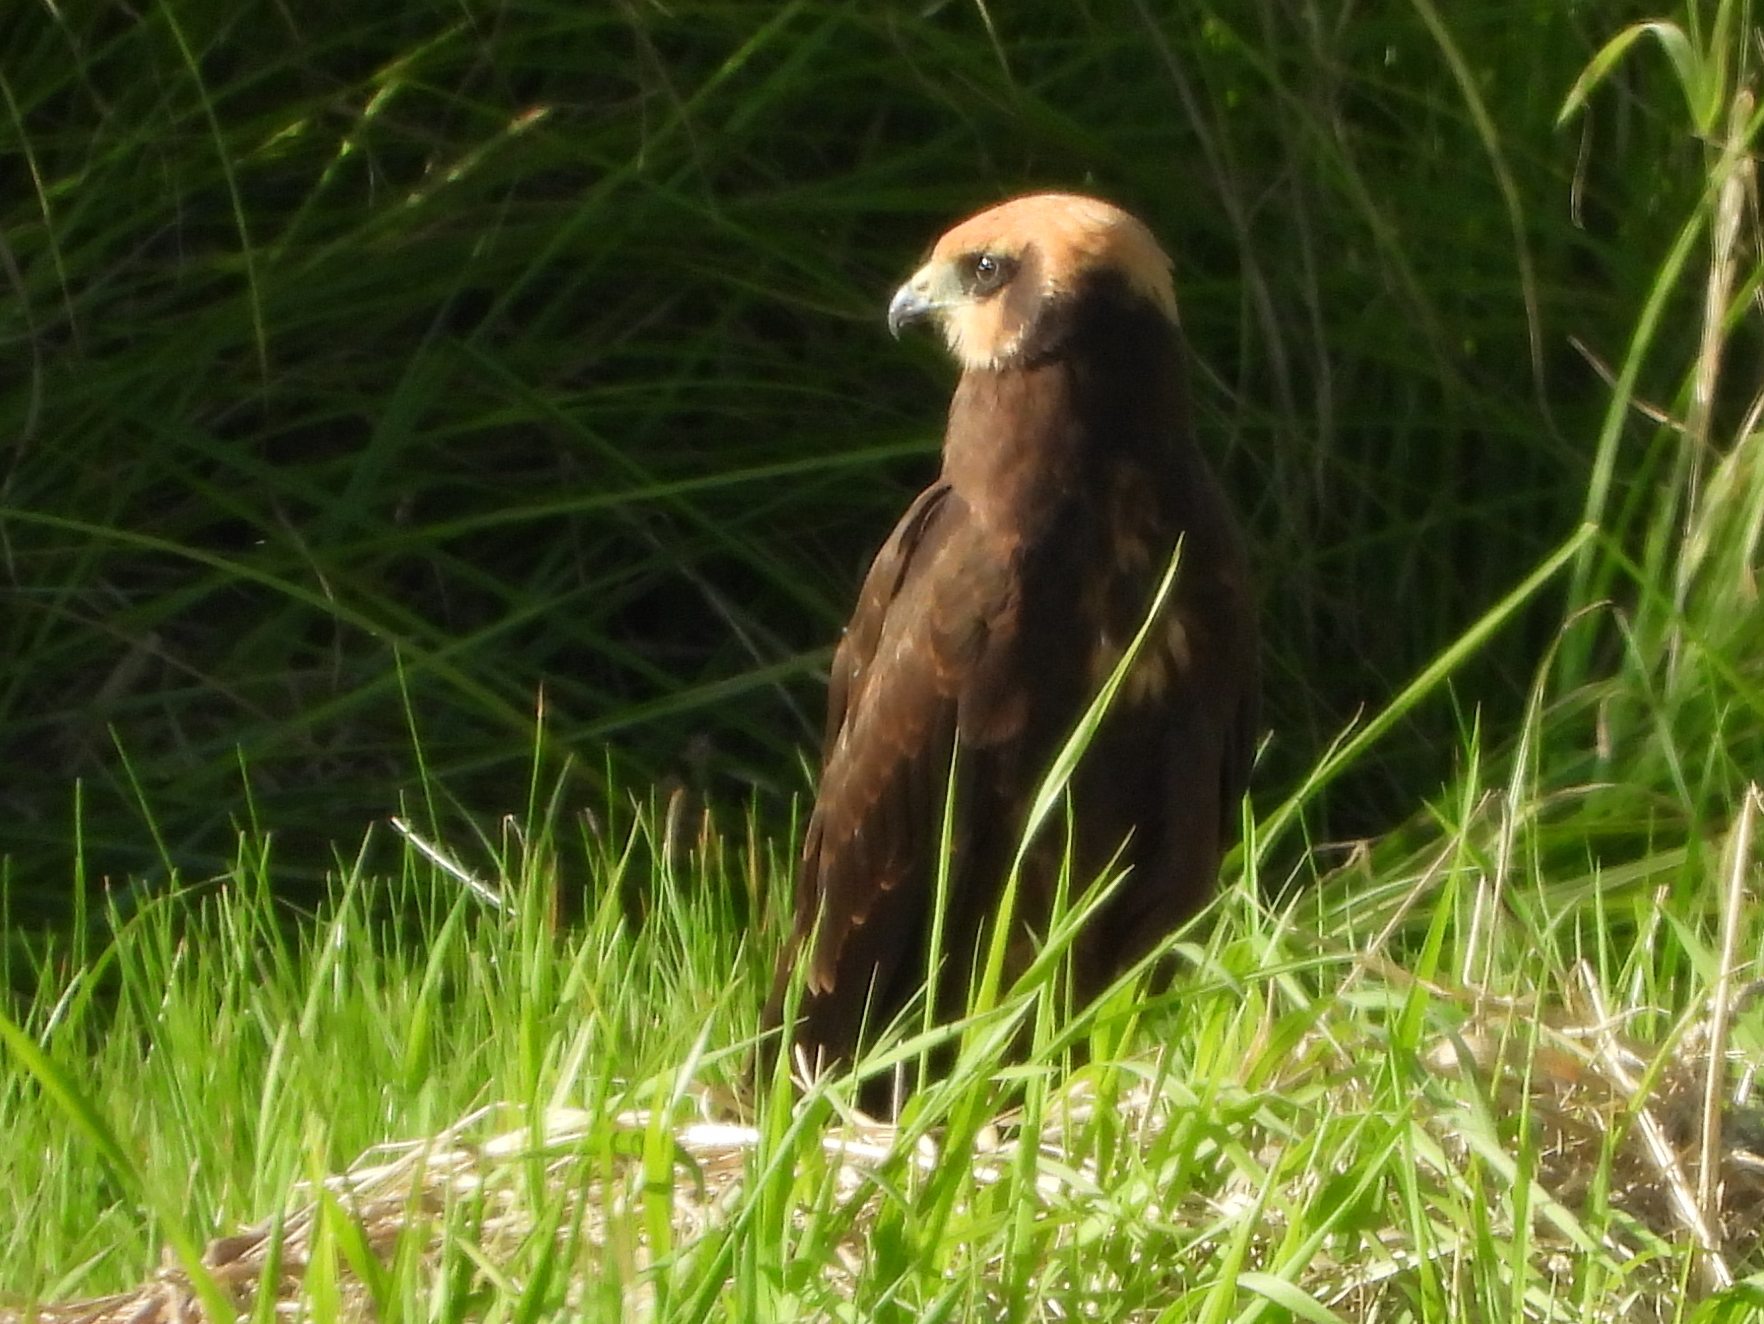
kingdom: Animalia
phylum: Chordata
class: Aves
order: Accipitriformes
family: Accipitridae
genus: Circus
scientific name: Circus aeruginosus
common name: Western marsh harrier
